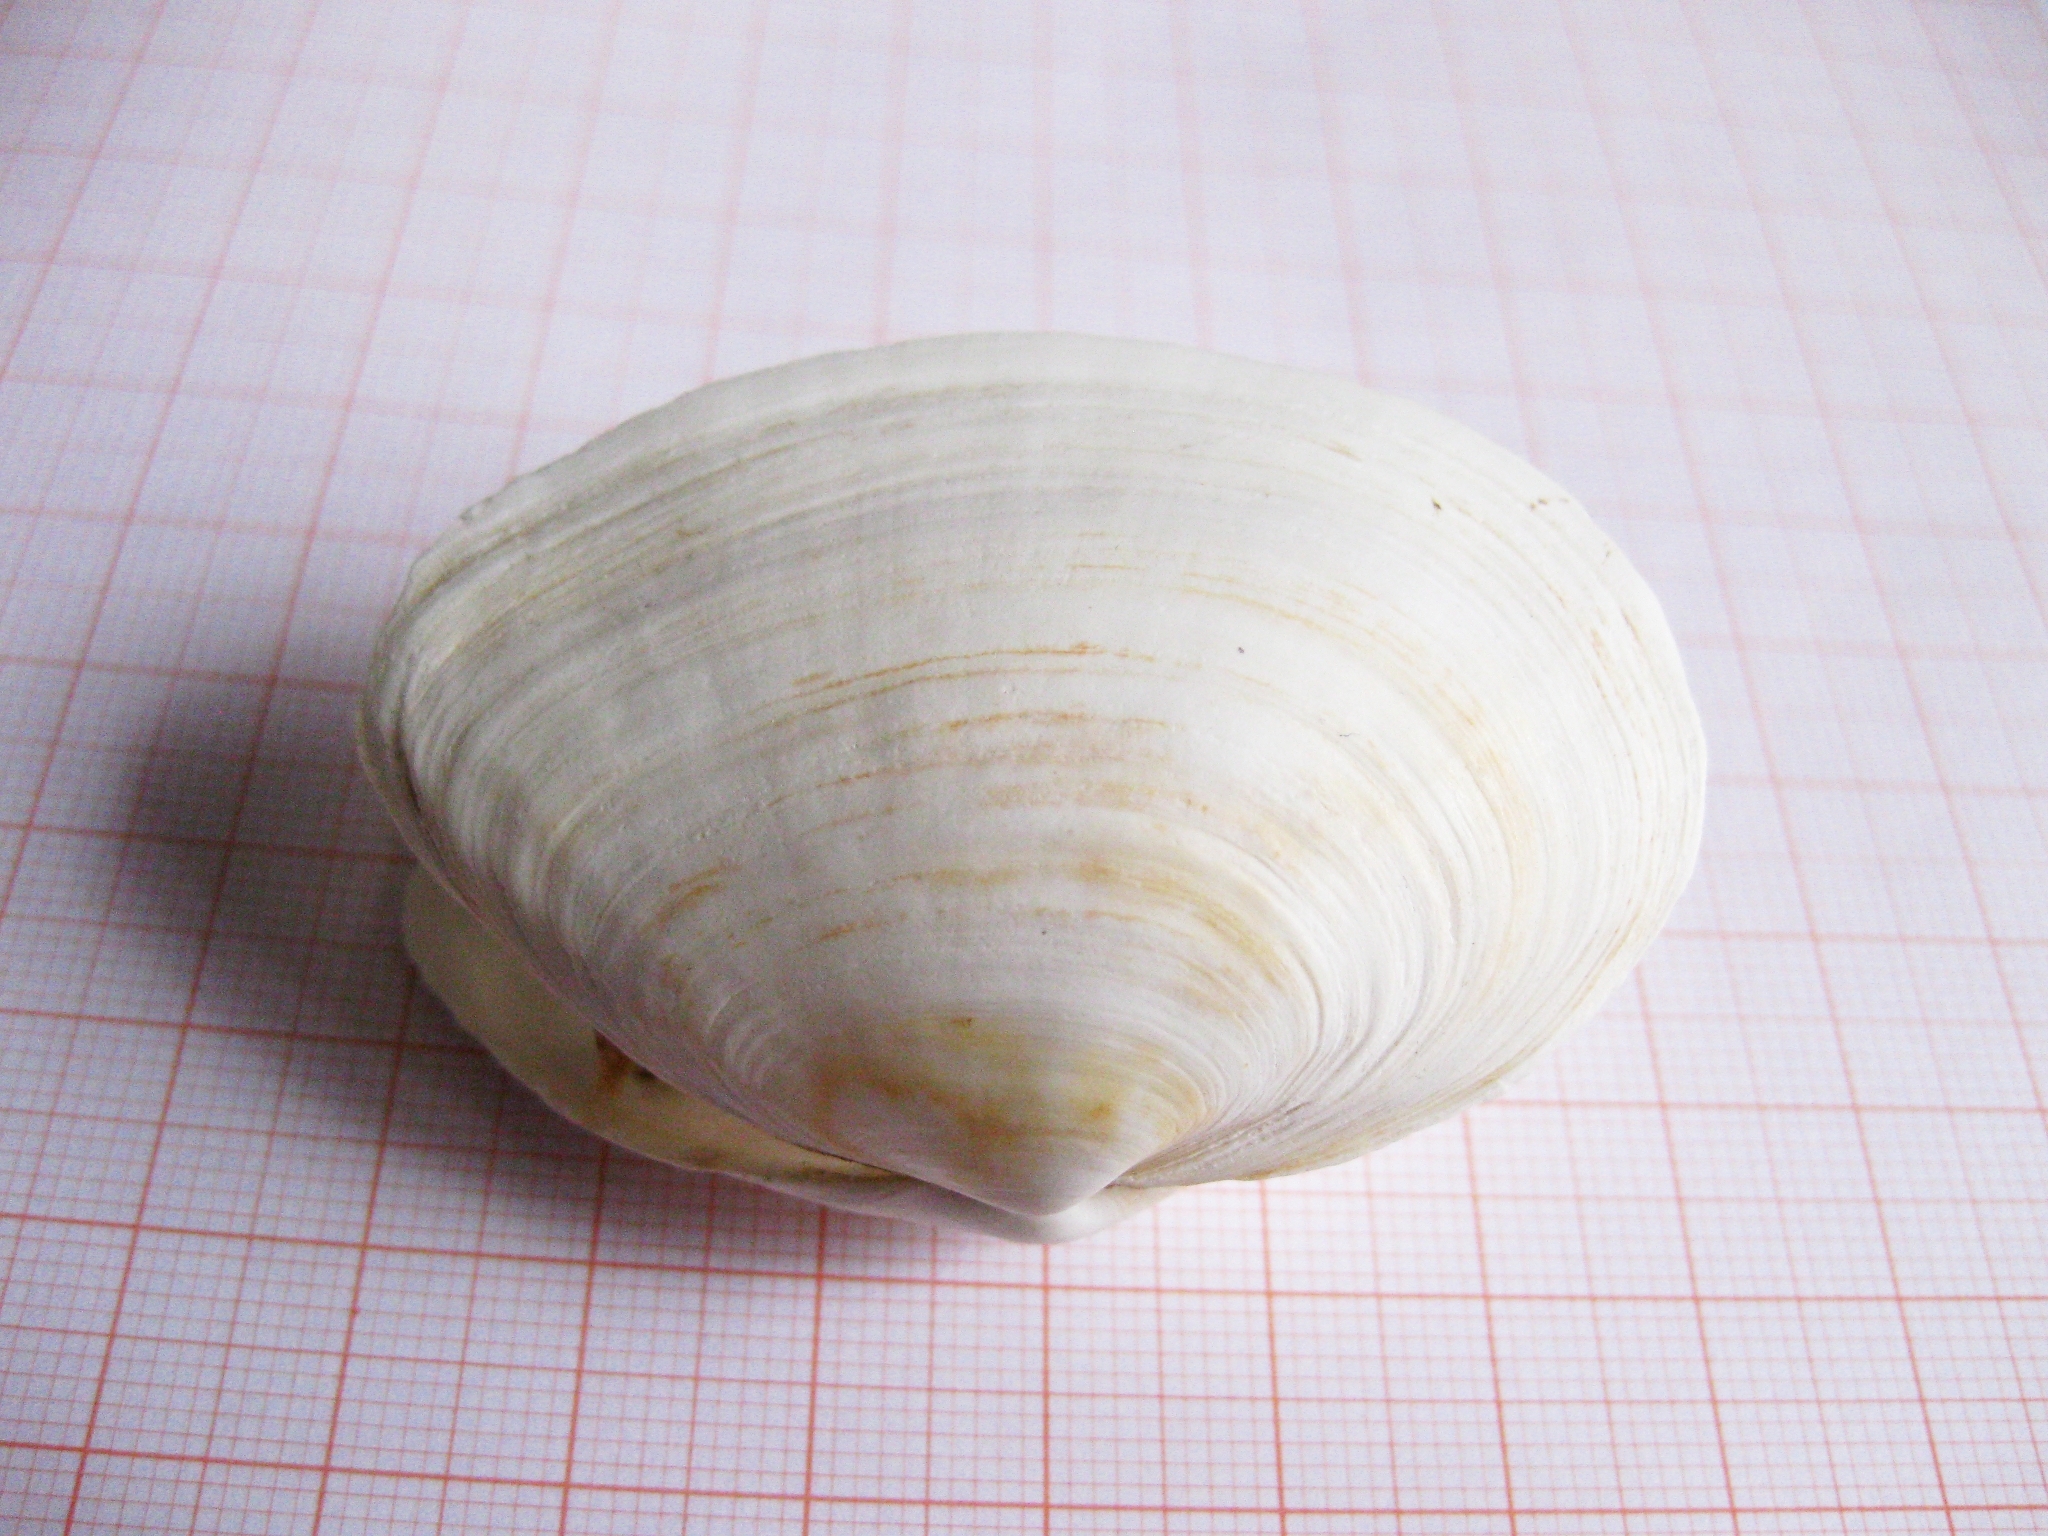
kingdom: Animalia
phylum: Mollusca
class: Bivalvia
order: Myida
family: Myidae
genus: Mya
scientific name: Mya arenaria
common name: Soft-shelled clam
